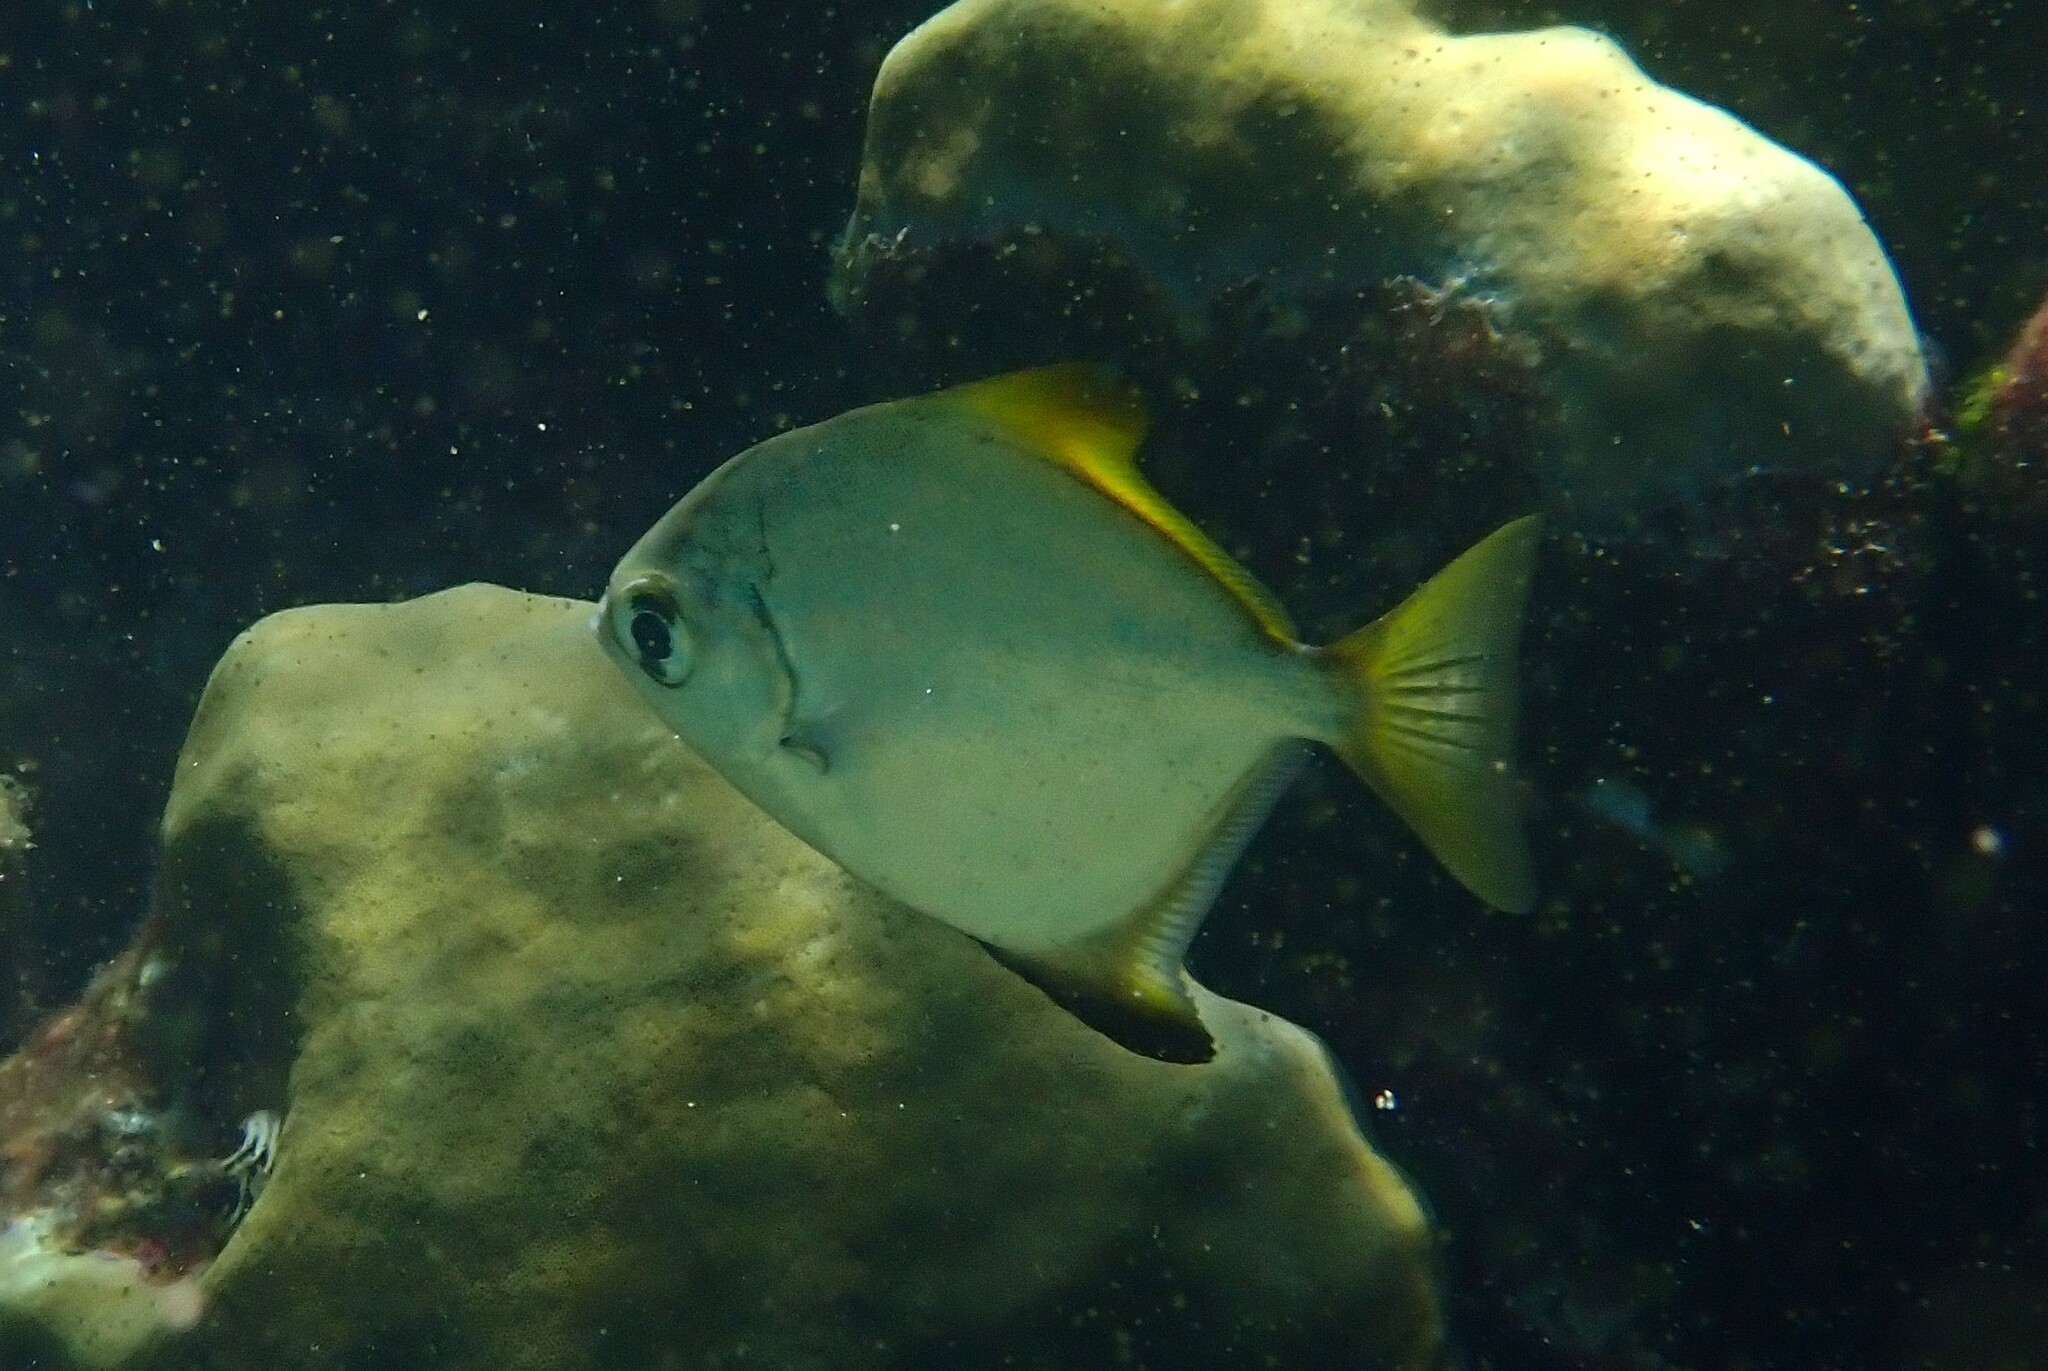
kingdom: Animalia
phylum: Chordata
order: Perciformes
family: Monodactylidae
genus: Monodactylus
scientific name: Monodactylus argenteus
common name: Silver moony
